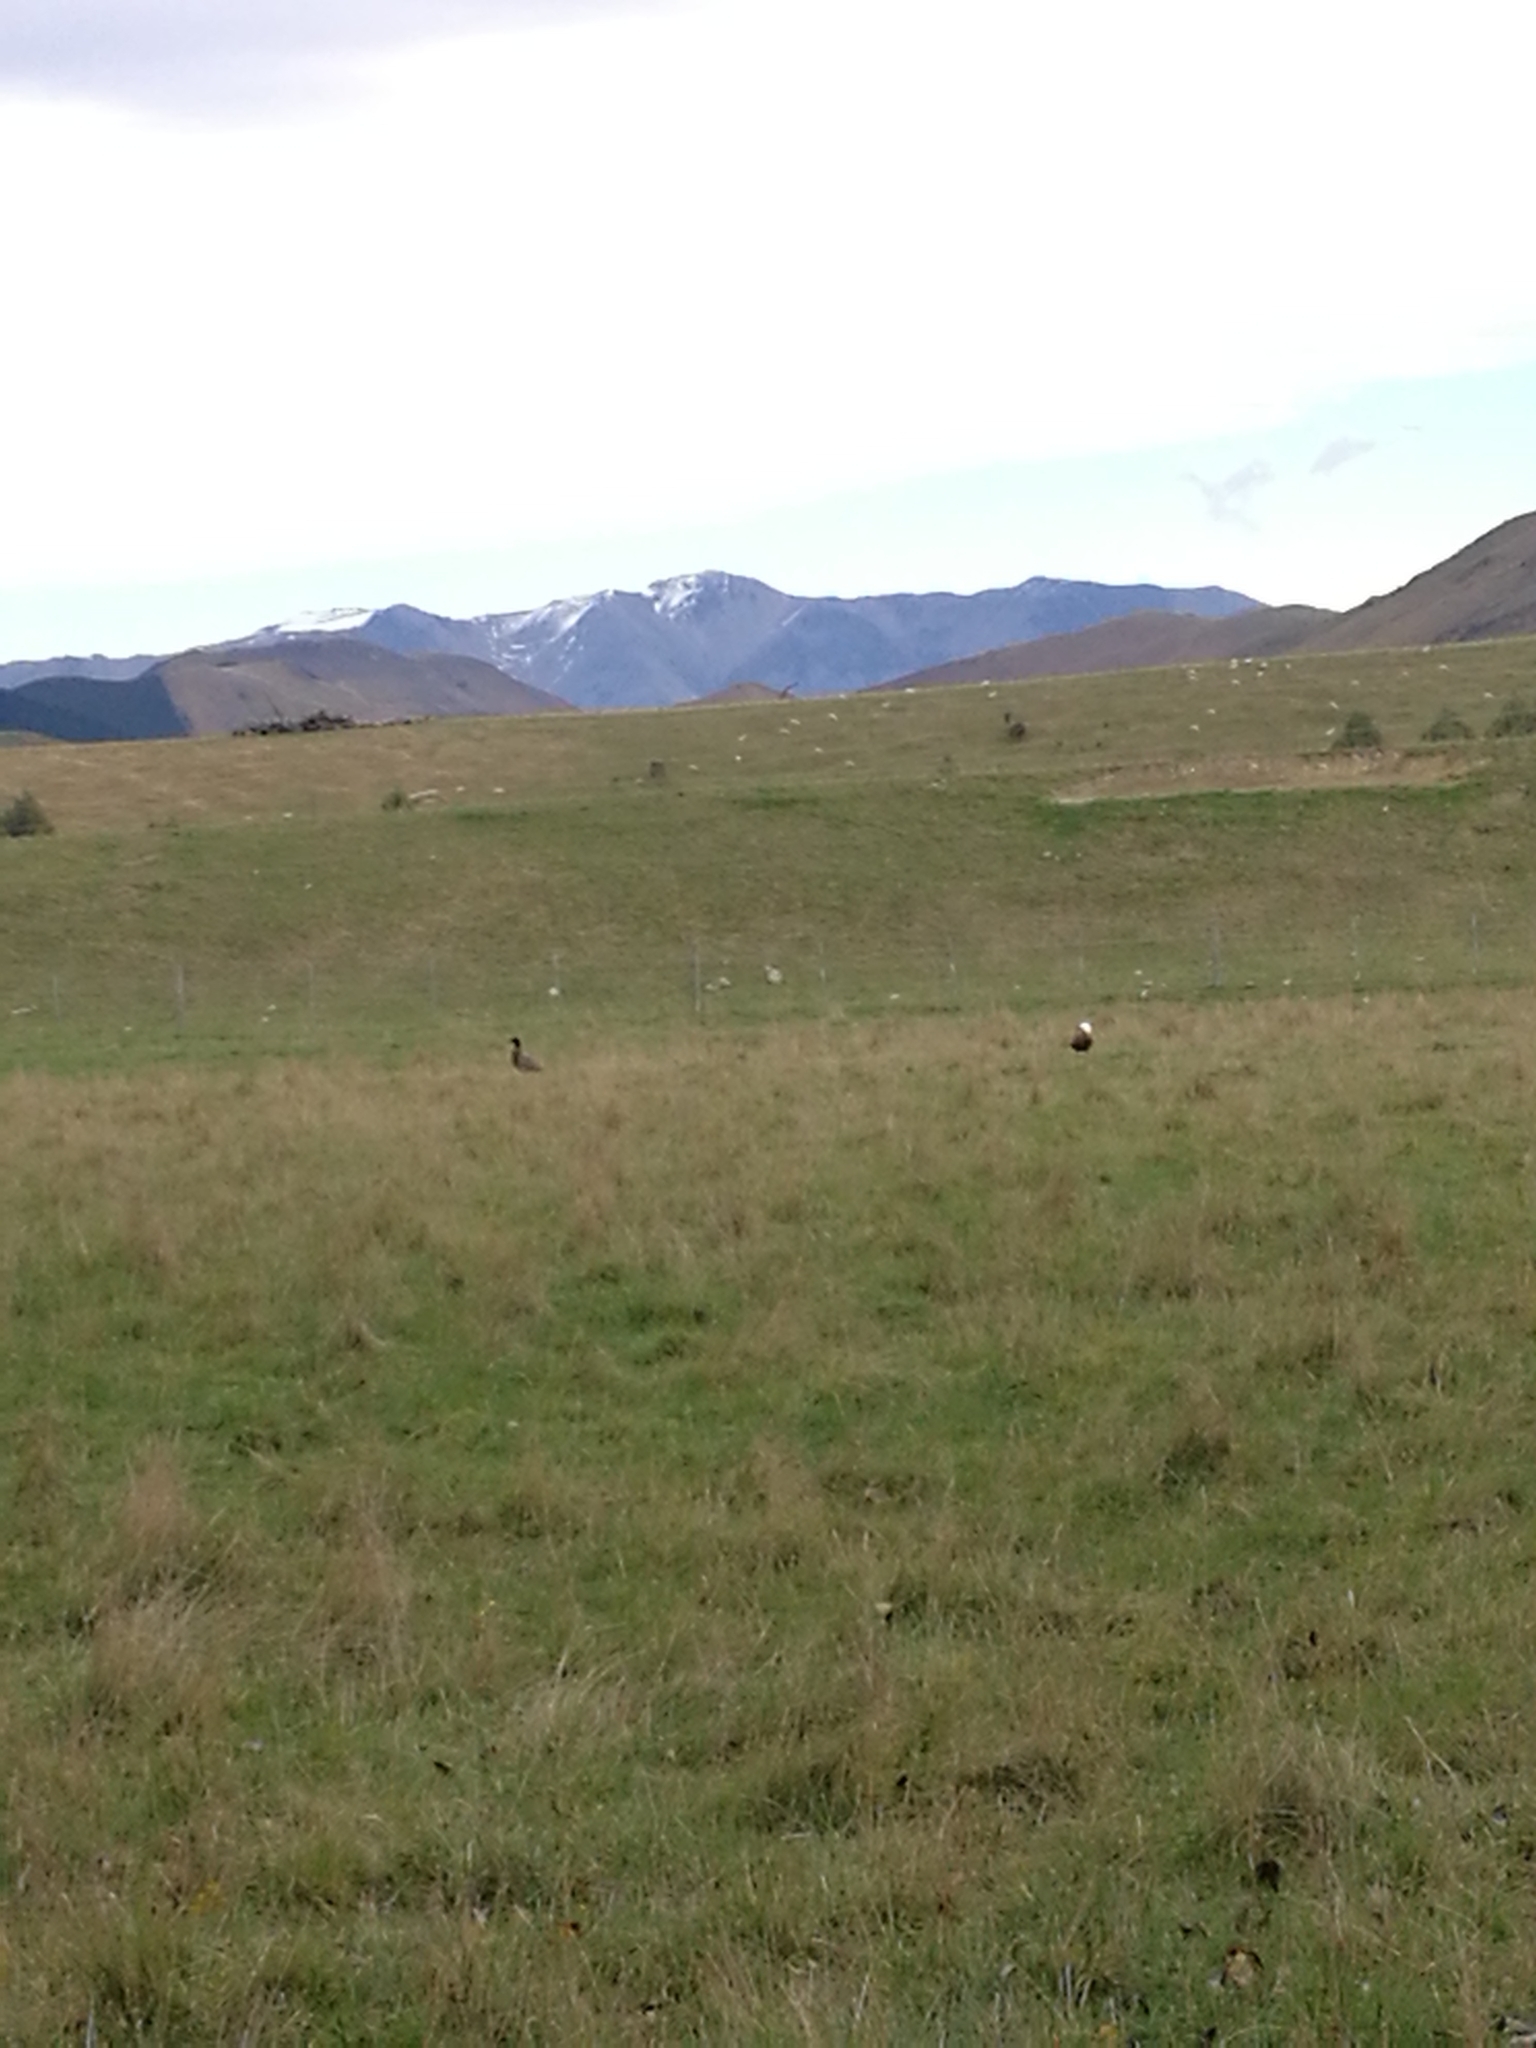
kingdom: Animalia
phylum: Chordata
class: Aves
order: Anseriformes
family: Anatidae
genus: Tadorna
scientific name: Tadorna variegata
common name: Paradise shelduck
